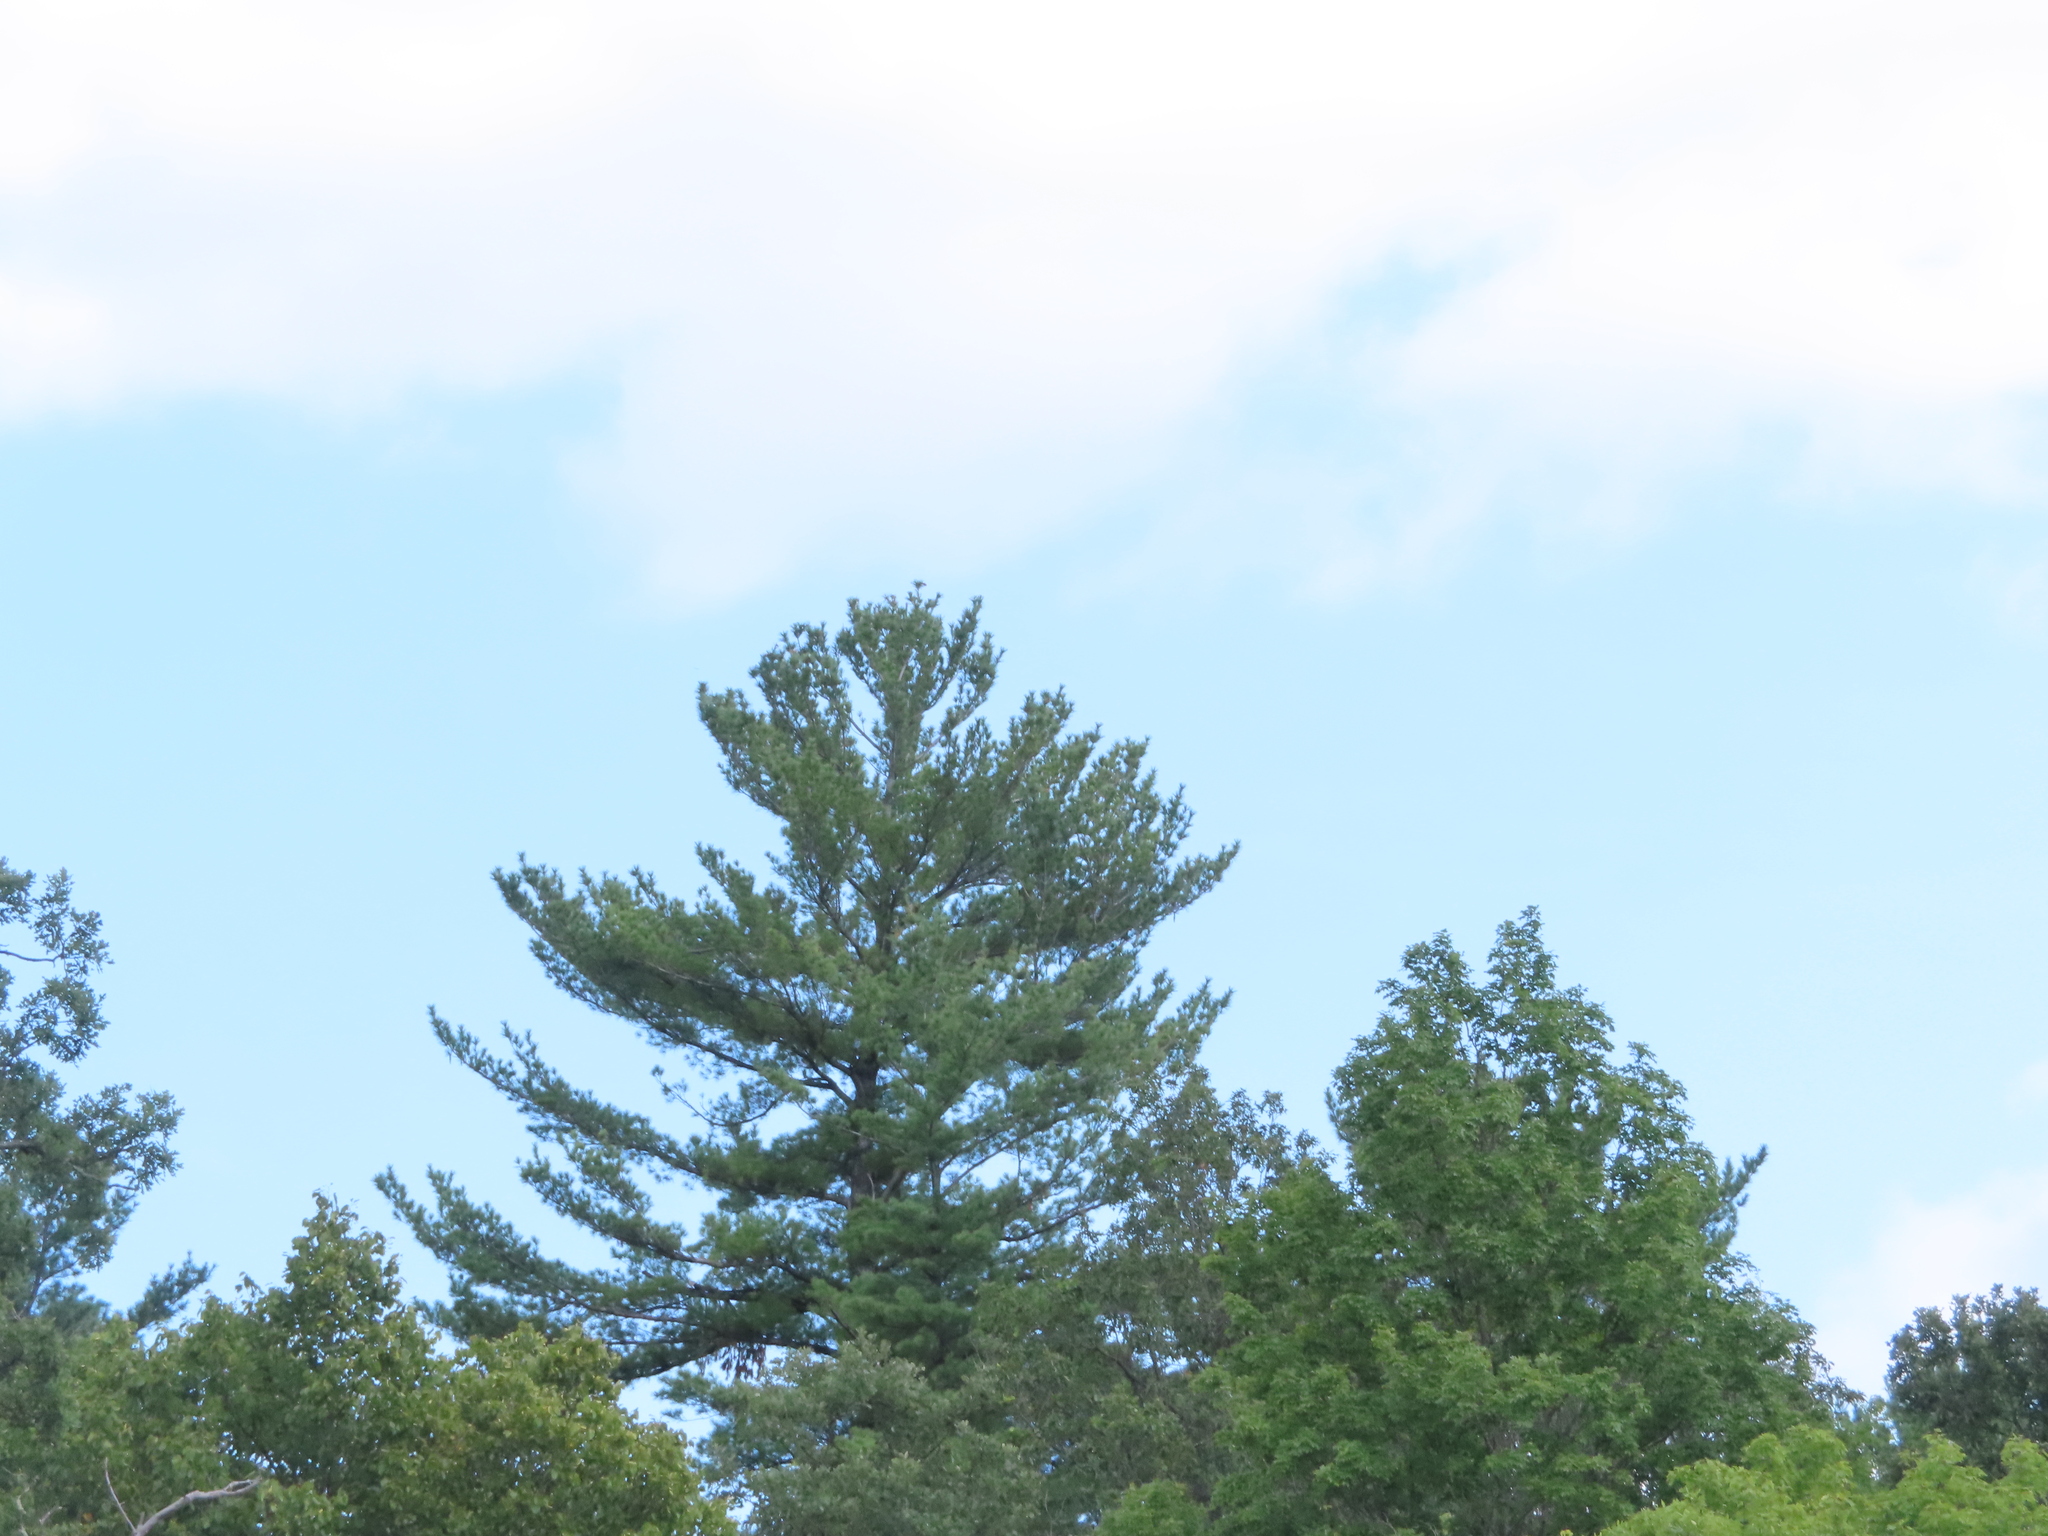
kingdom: Plantae
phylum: Tracheophyta
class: Pinopsida
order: Pinales
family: Pinaceae
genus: Pinus
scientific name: Pinus strobus
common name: Weymouth pine
